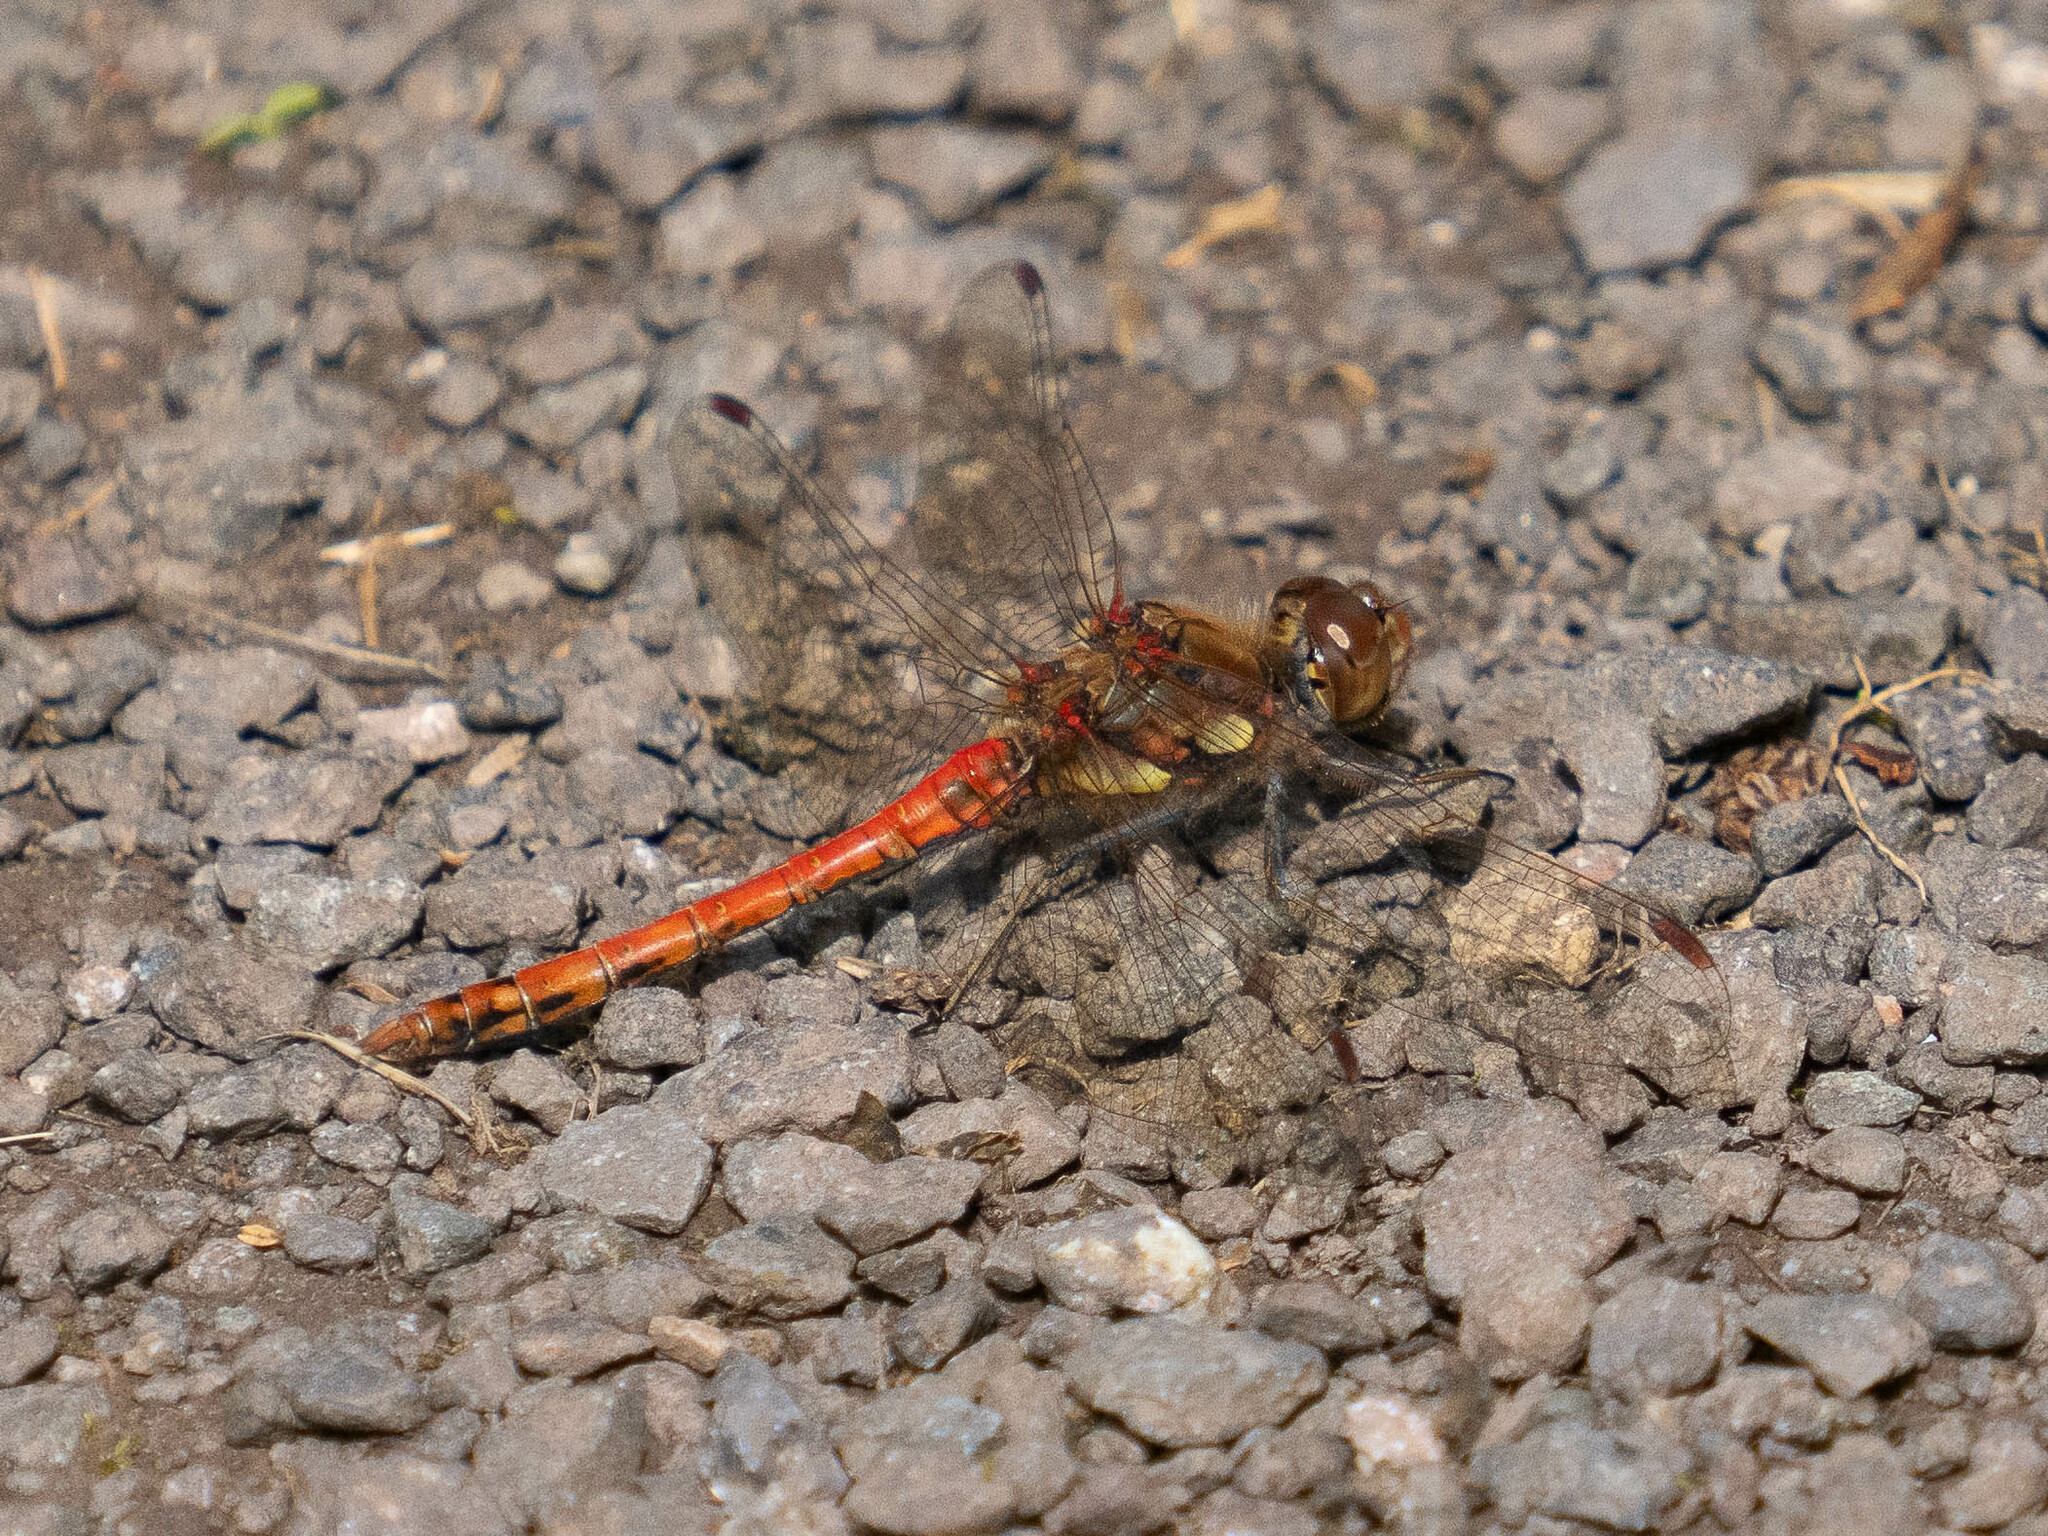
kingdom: Animalia
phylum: Arthropoda
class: Insecta
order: Odonata
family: Libellulidae
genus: Sympetrum
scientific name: Sympetrum striolatum
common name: Common darter
